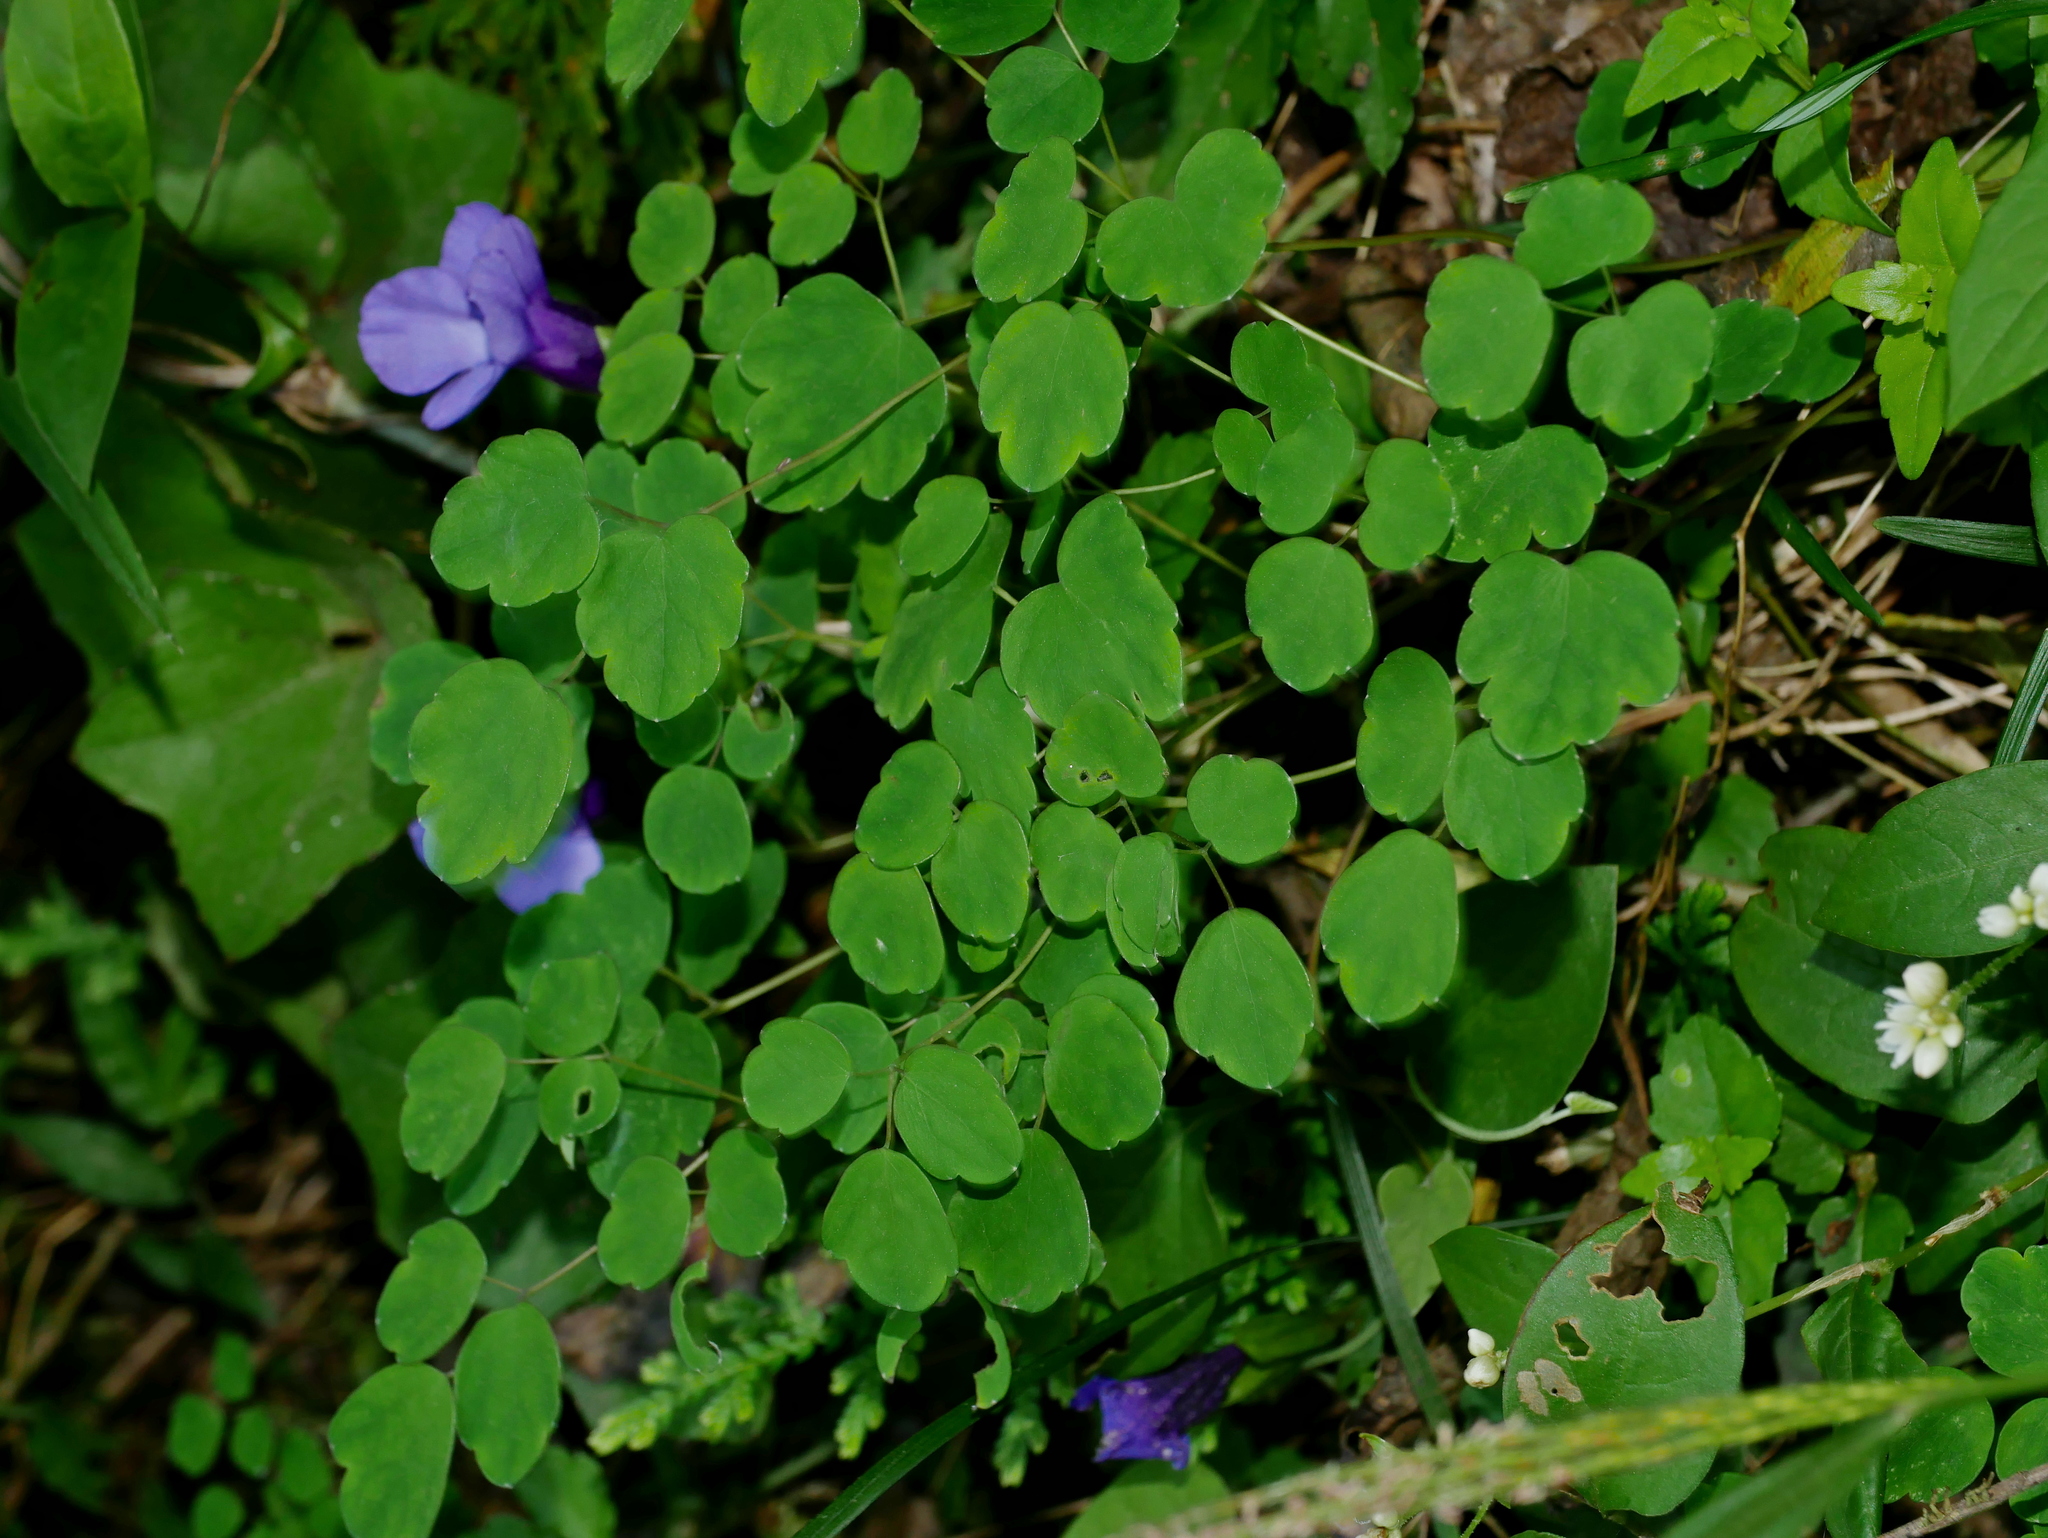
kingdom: Plantae
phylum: Tracheophyta
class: Magnoliopsida
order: Ranunculales
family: Ranunculaceae
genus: Thalictrum
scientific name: Thalictrum urbaini
